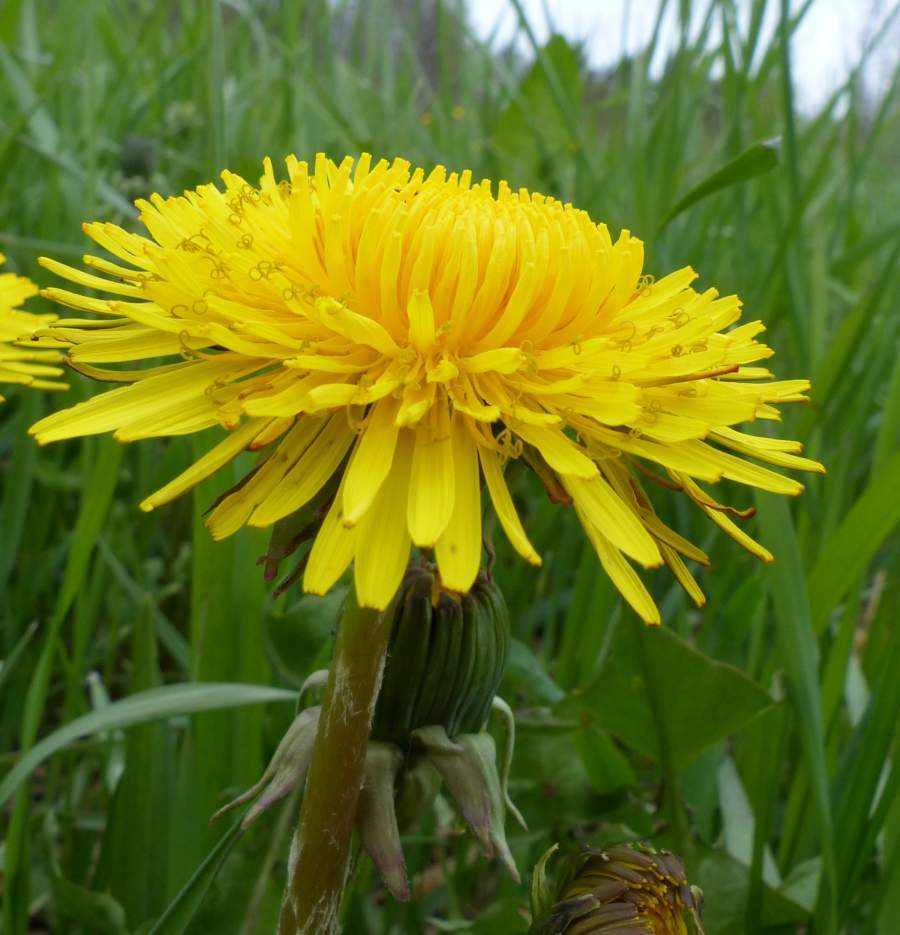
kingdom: Plantae
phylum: Tracheophyta
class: Magnoliopsida
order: Asterales
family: Asteraceae
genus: Taraxacum
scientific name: Taraxacum officinale
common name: Common dandelion
